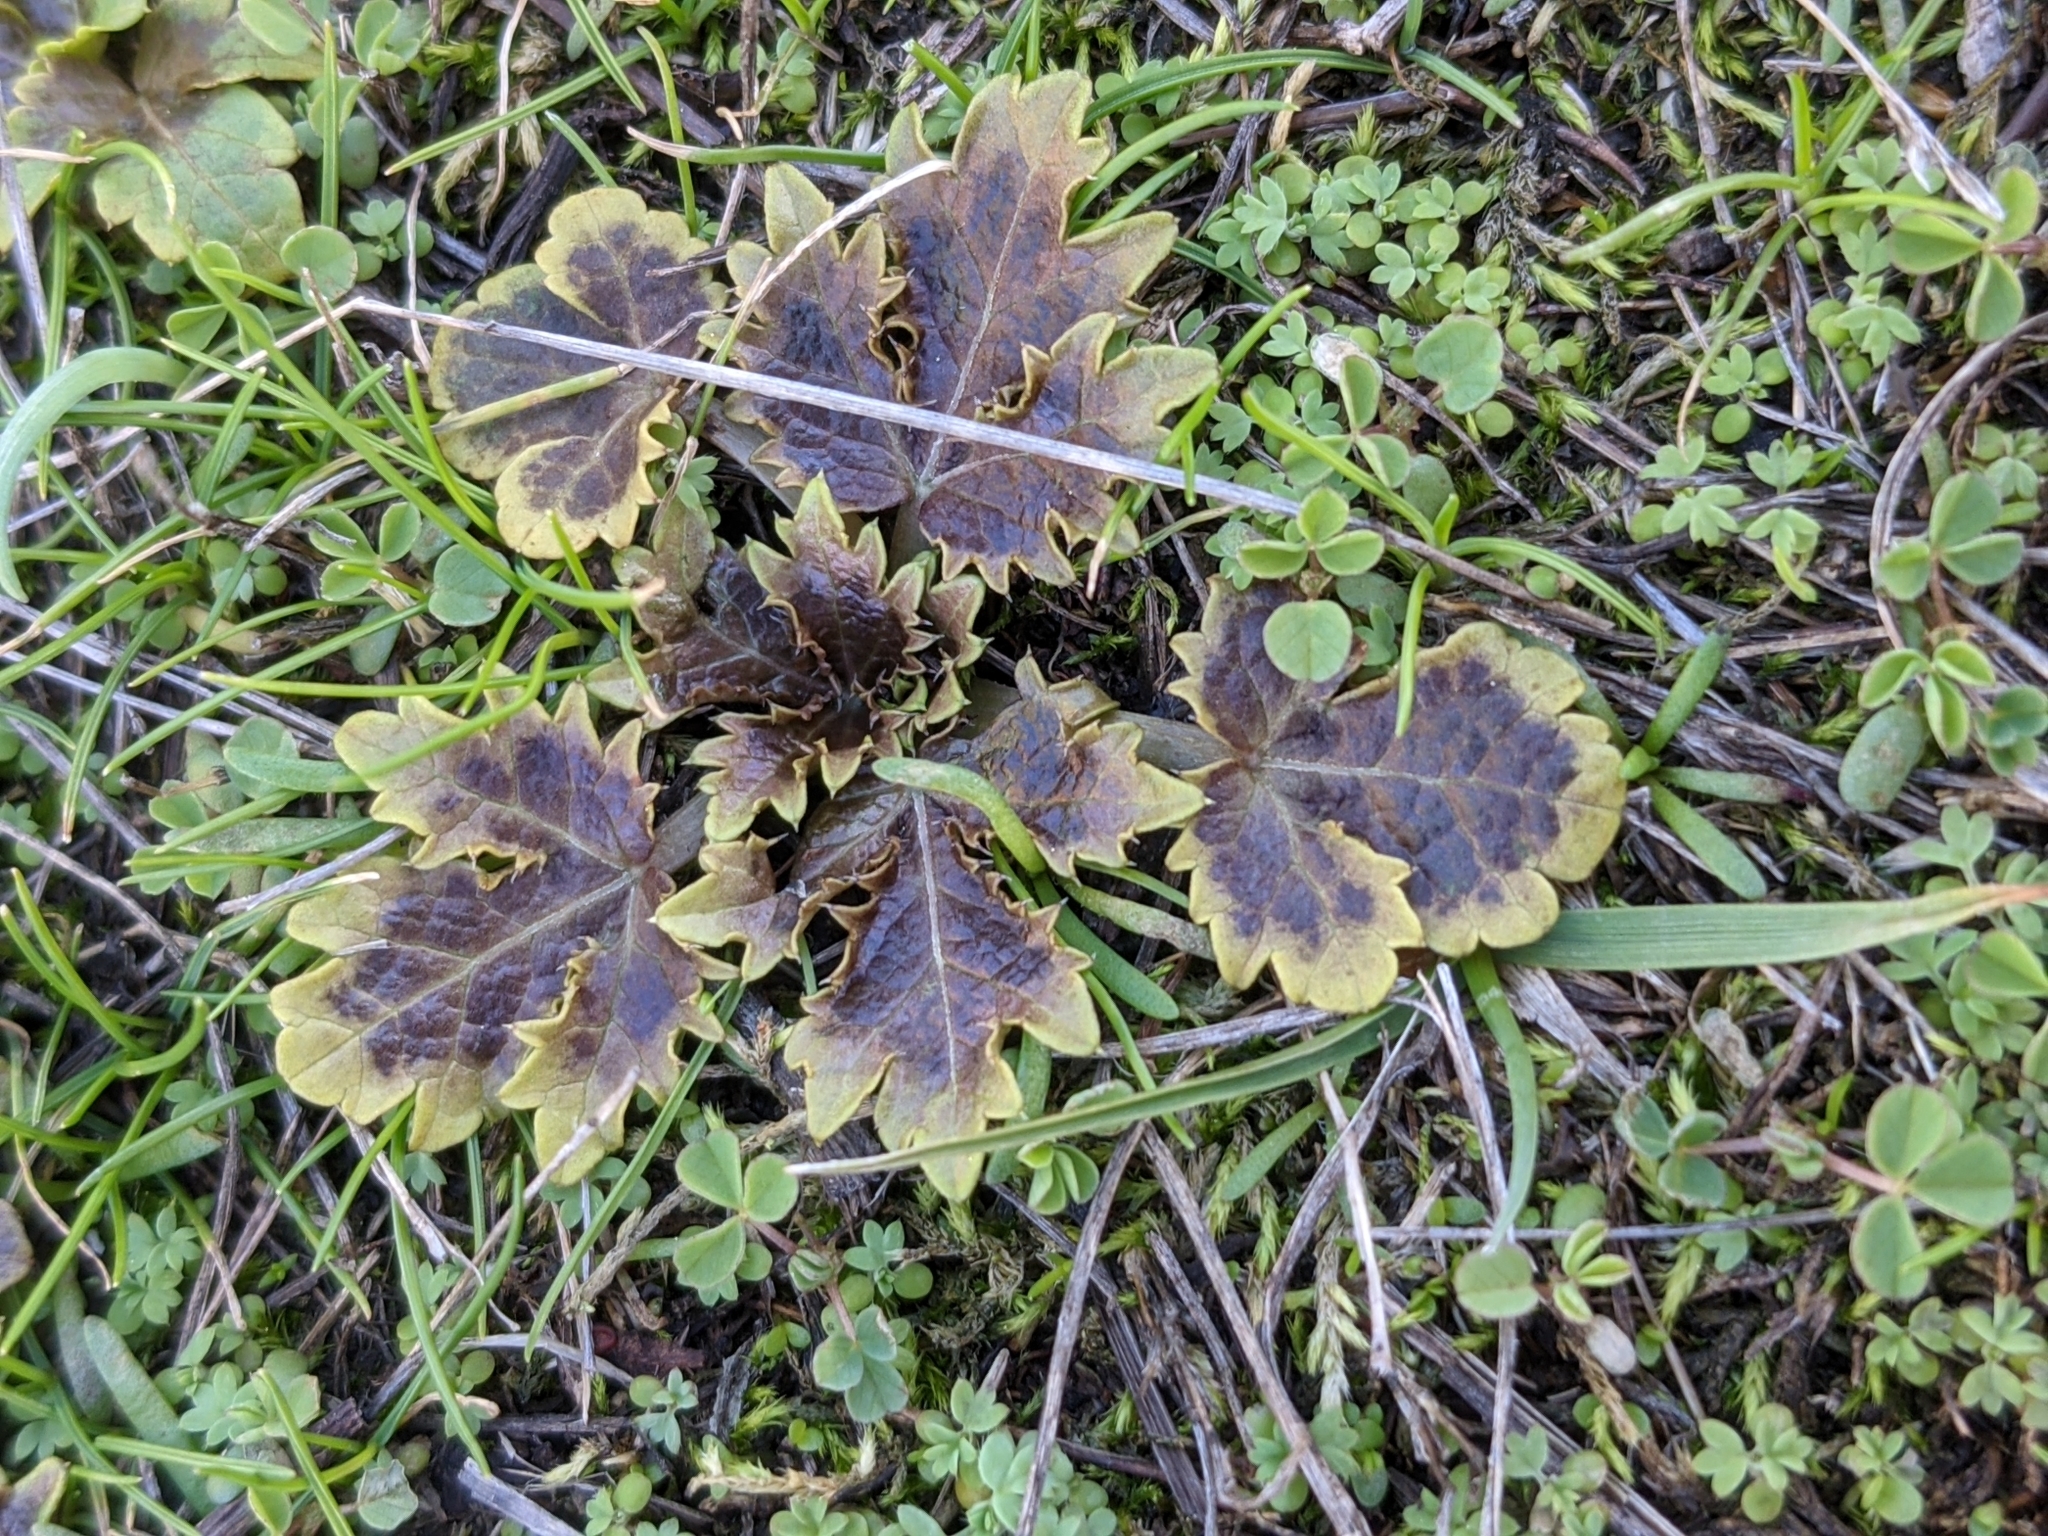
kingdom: Plantae
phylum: Tracheophyta
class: Magnoliopsida
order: Apiales
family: Apiaceae
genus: Sanicula
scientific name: Sanicula arctopoides
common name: Footsteps-of-spring
